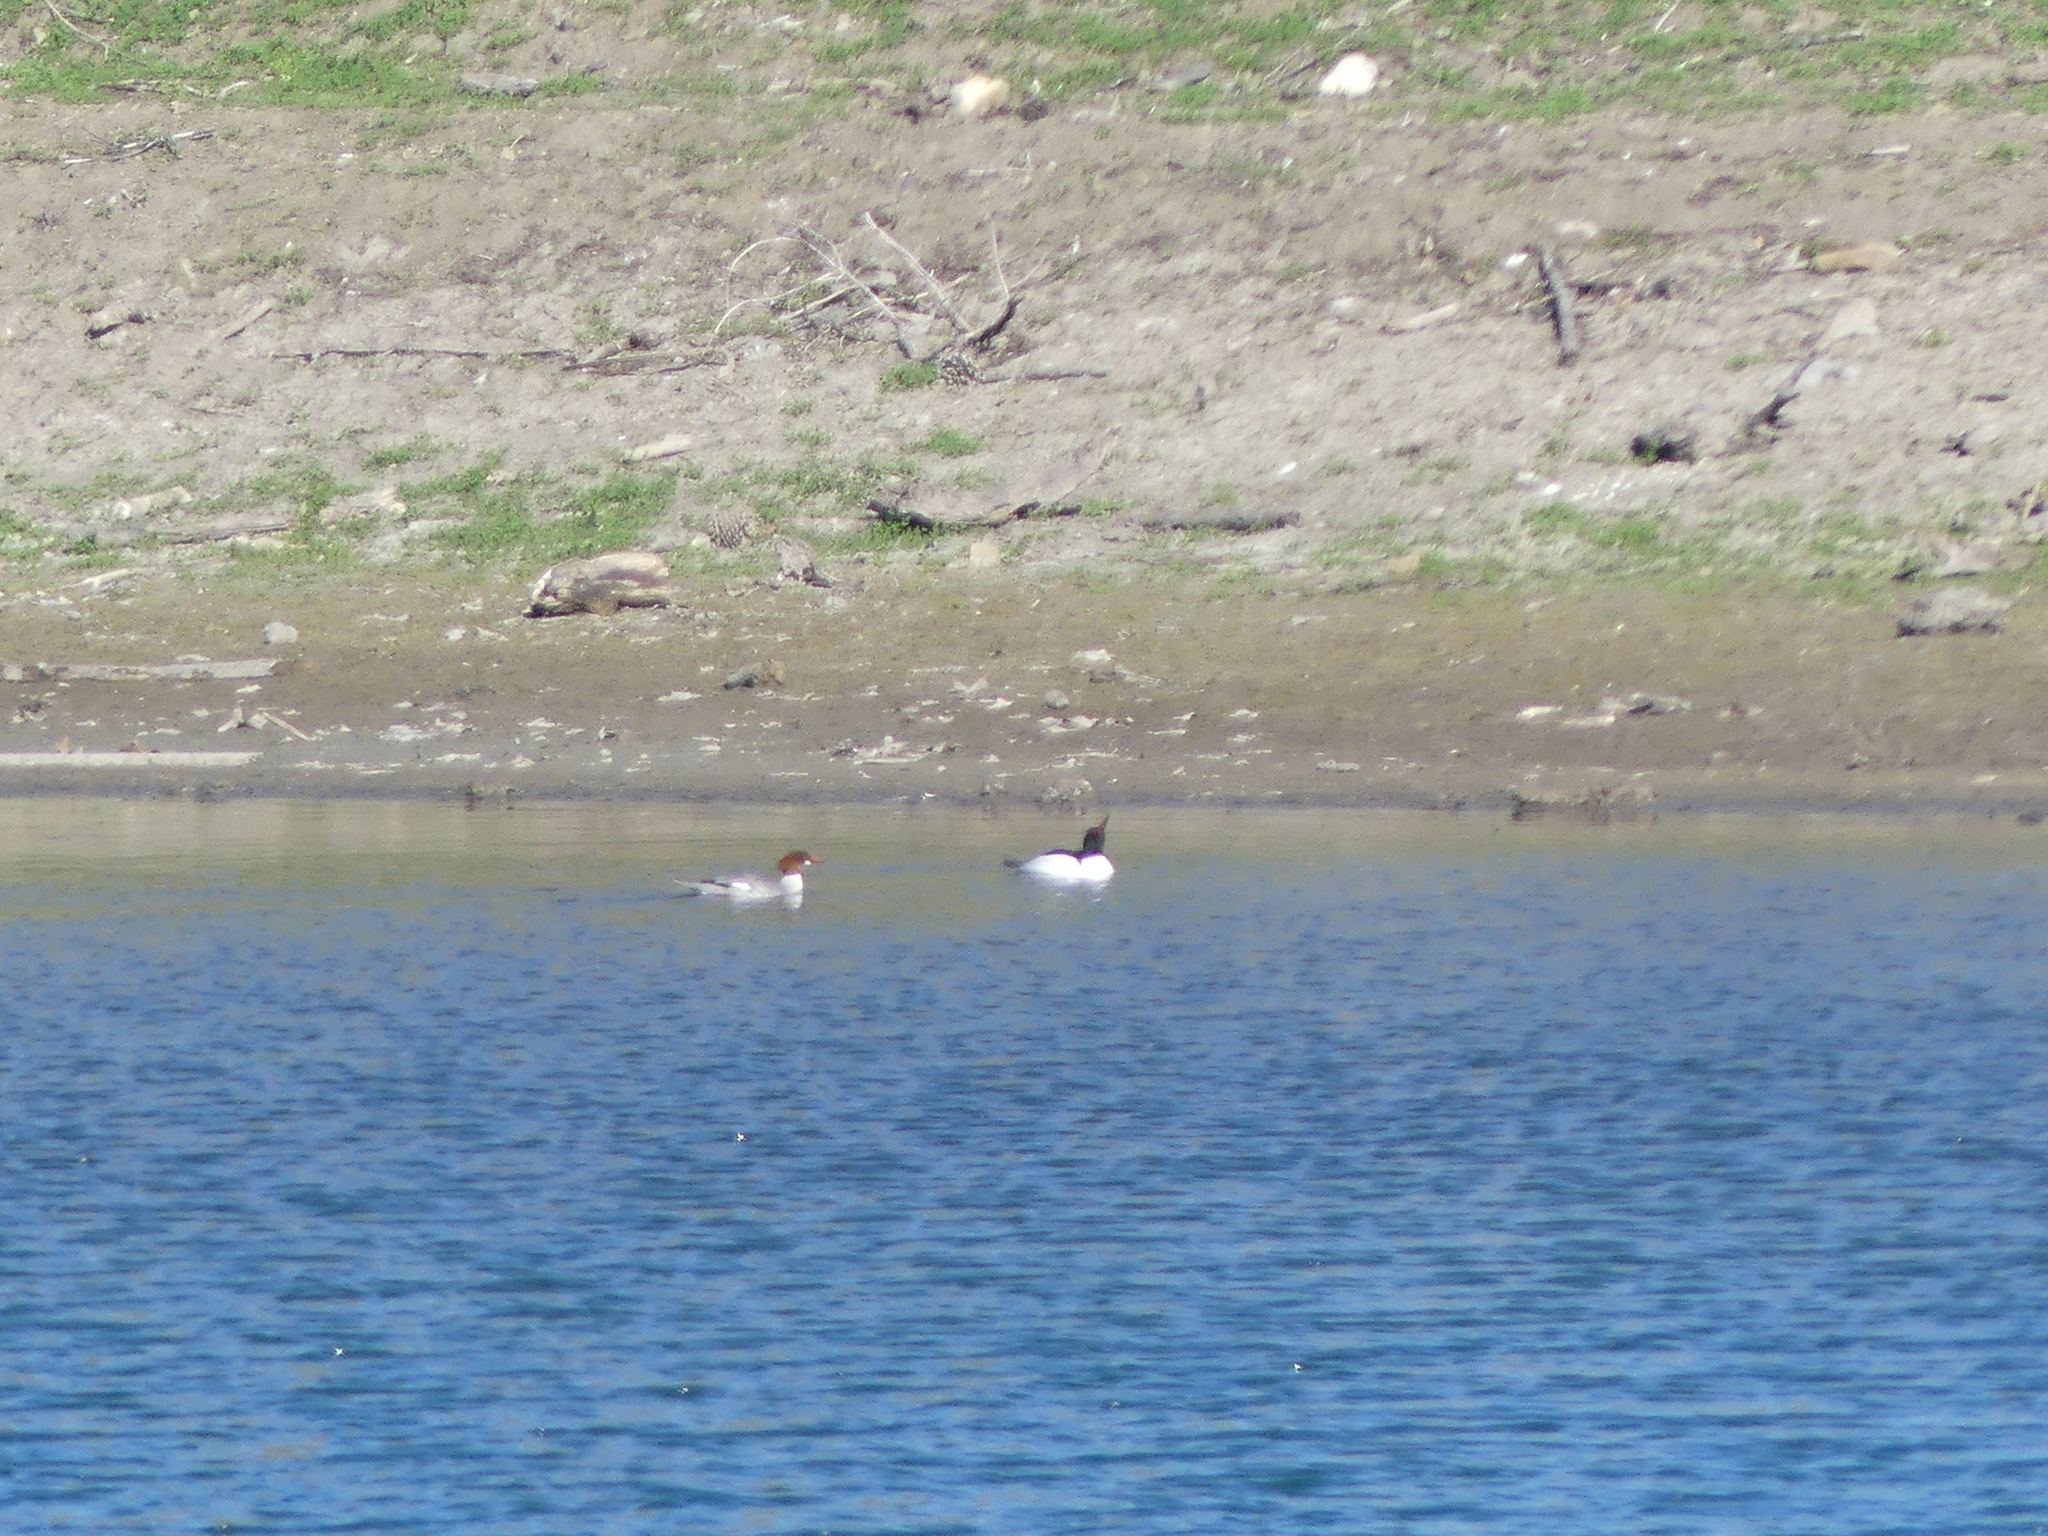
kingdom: Animalia
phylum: Chordata
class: Aves
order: Anseriformes
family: Anatidae
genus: Mergus
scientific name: Mergus merganser
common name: Common merganser
